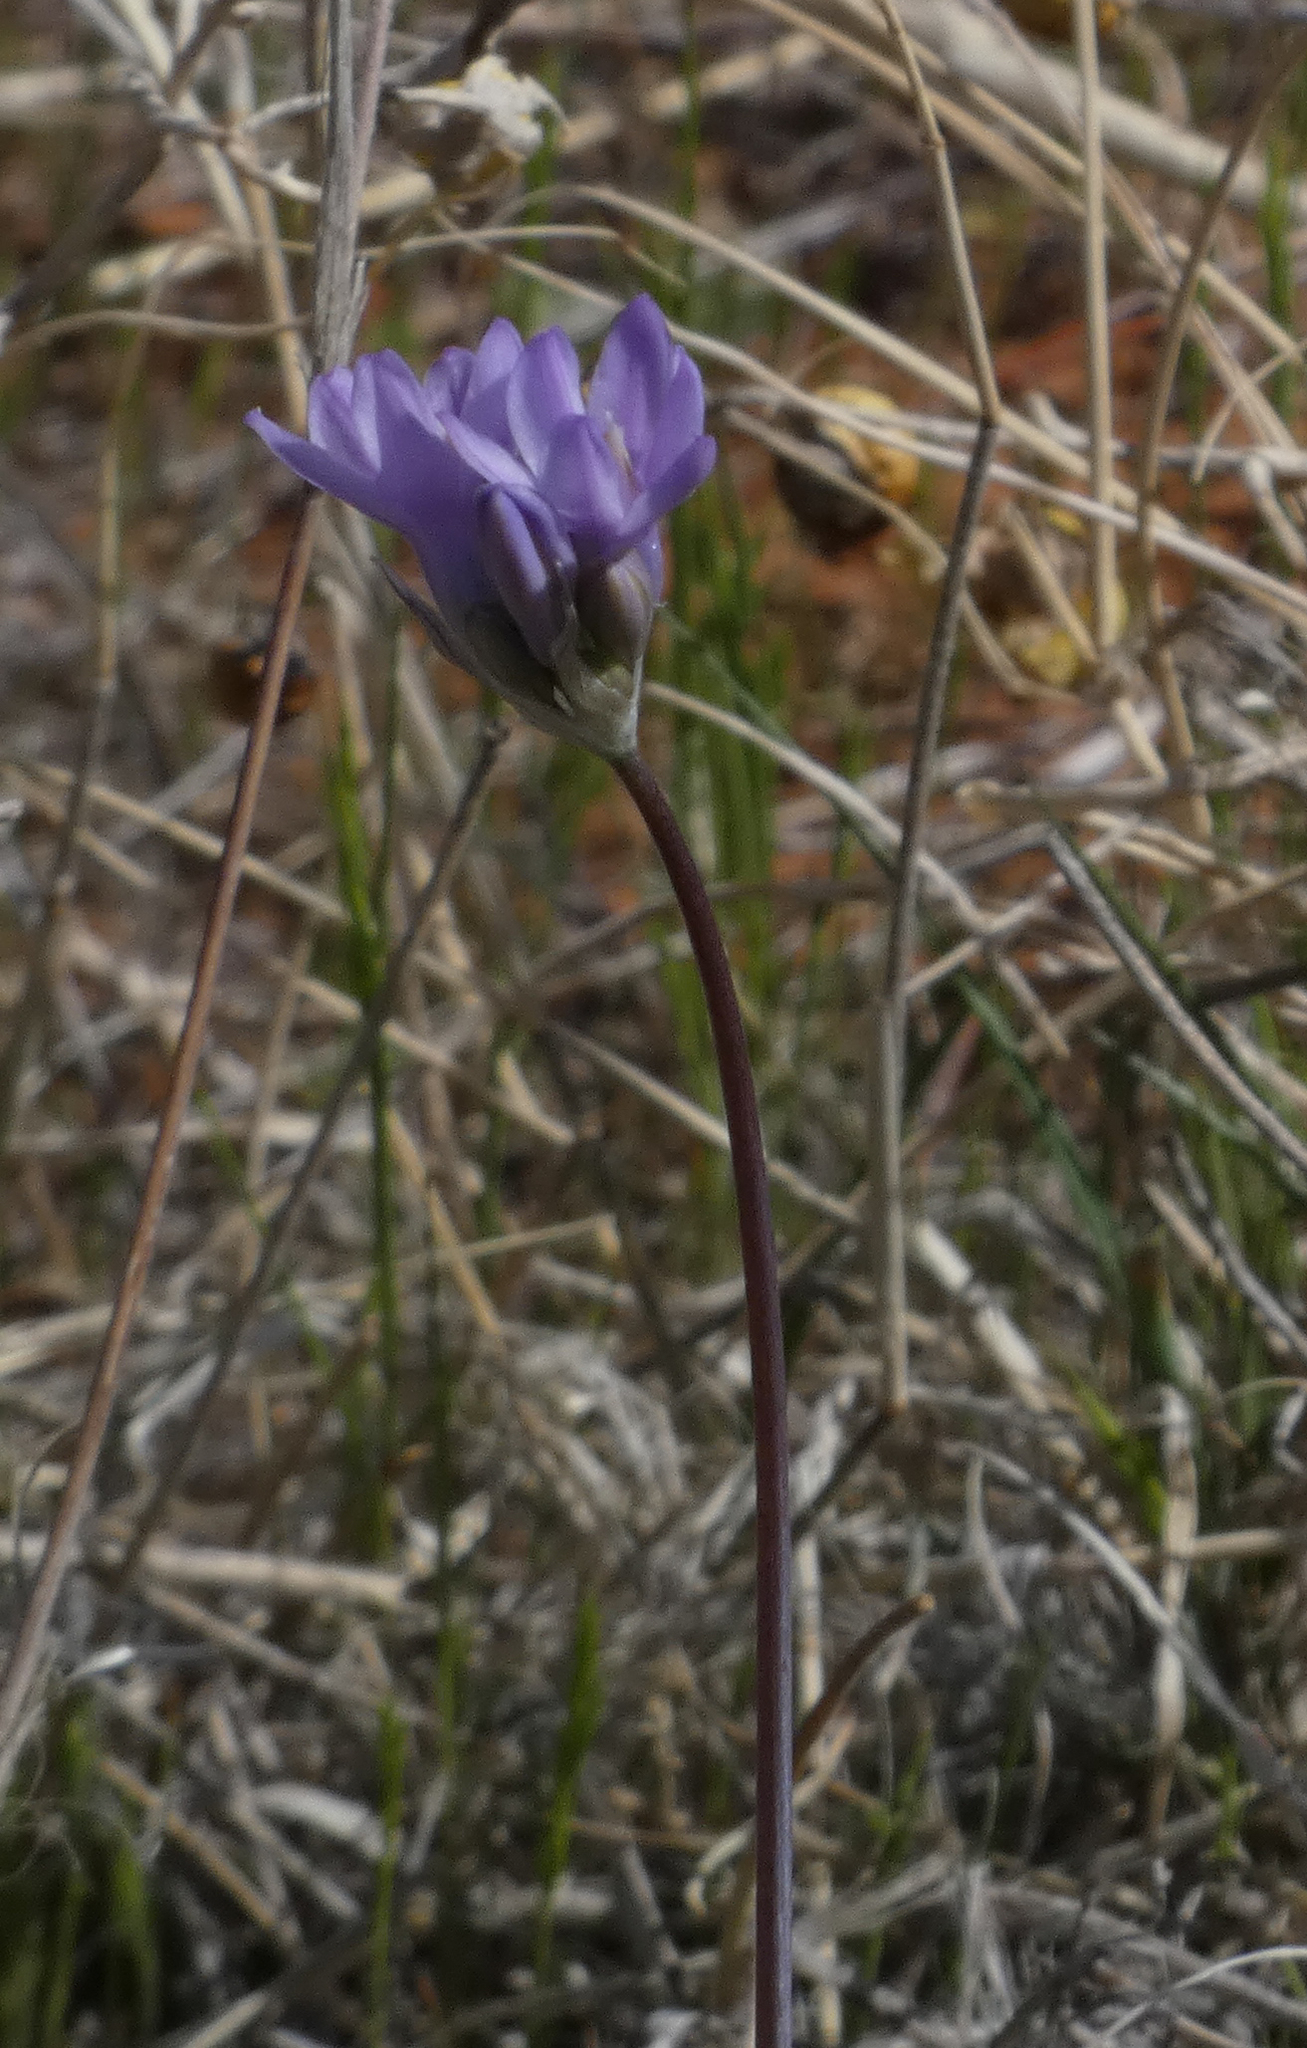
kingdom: Plantae
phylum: Tracheophyta
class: Liliopsida
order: Asparagales
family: Asparagaceae
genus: Dipterostemon
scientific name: Dipterostemon capitatus
